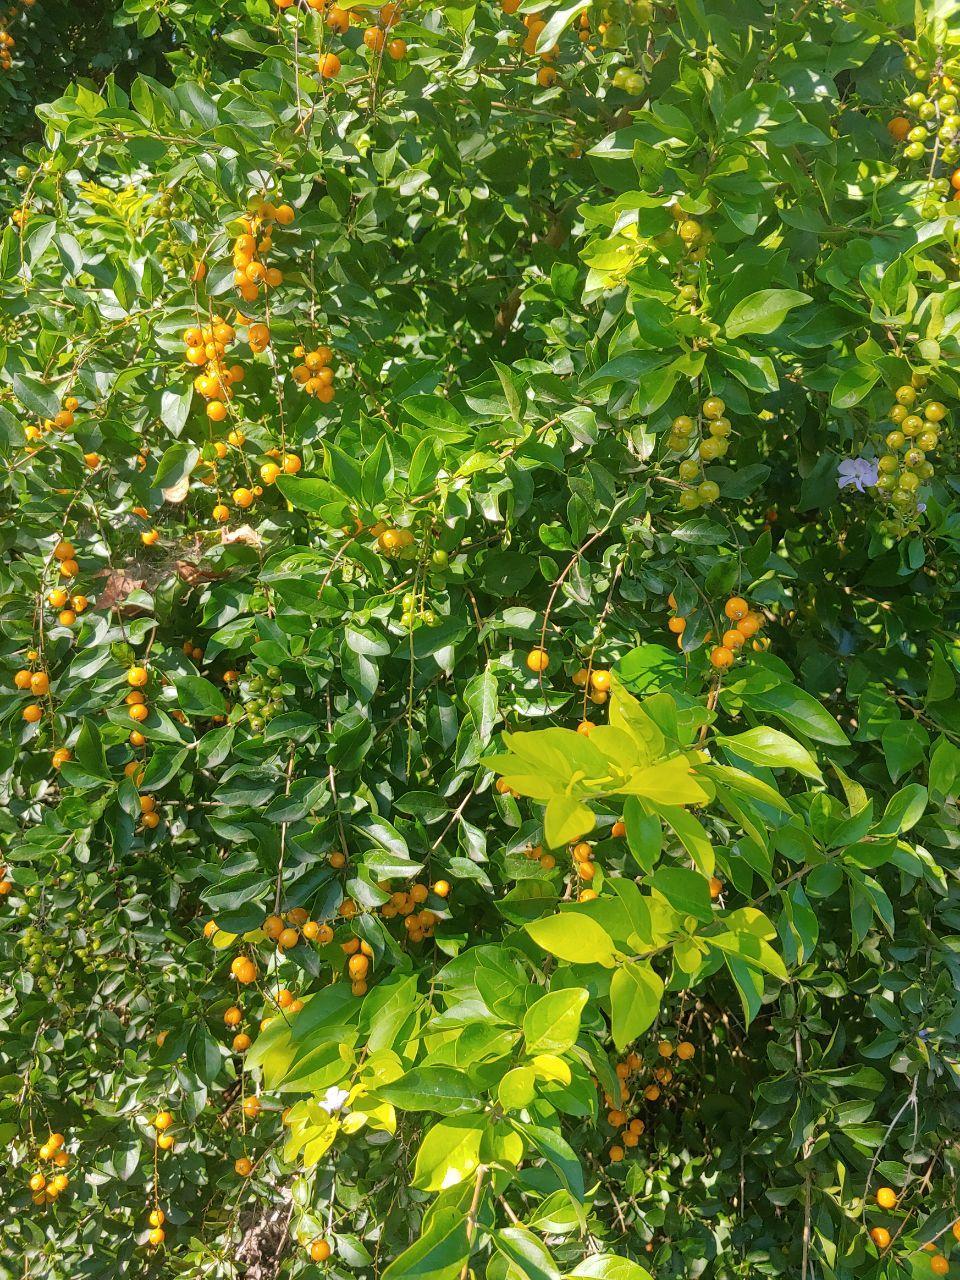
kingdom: Plantae
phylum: Tracheophyta
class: Magnoliopsida
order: Lamiales
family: Verbenaceae
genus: Duranta
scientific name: Duranta erecta
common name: Golden dewdrops
